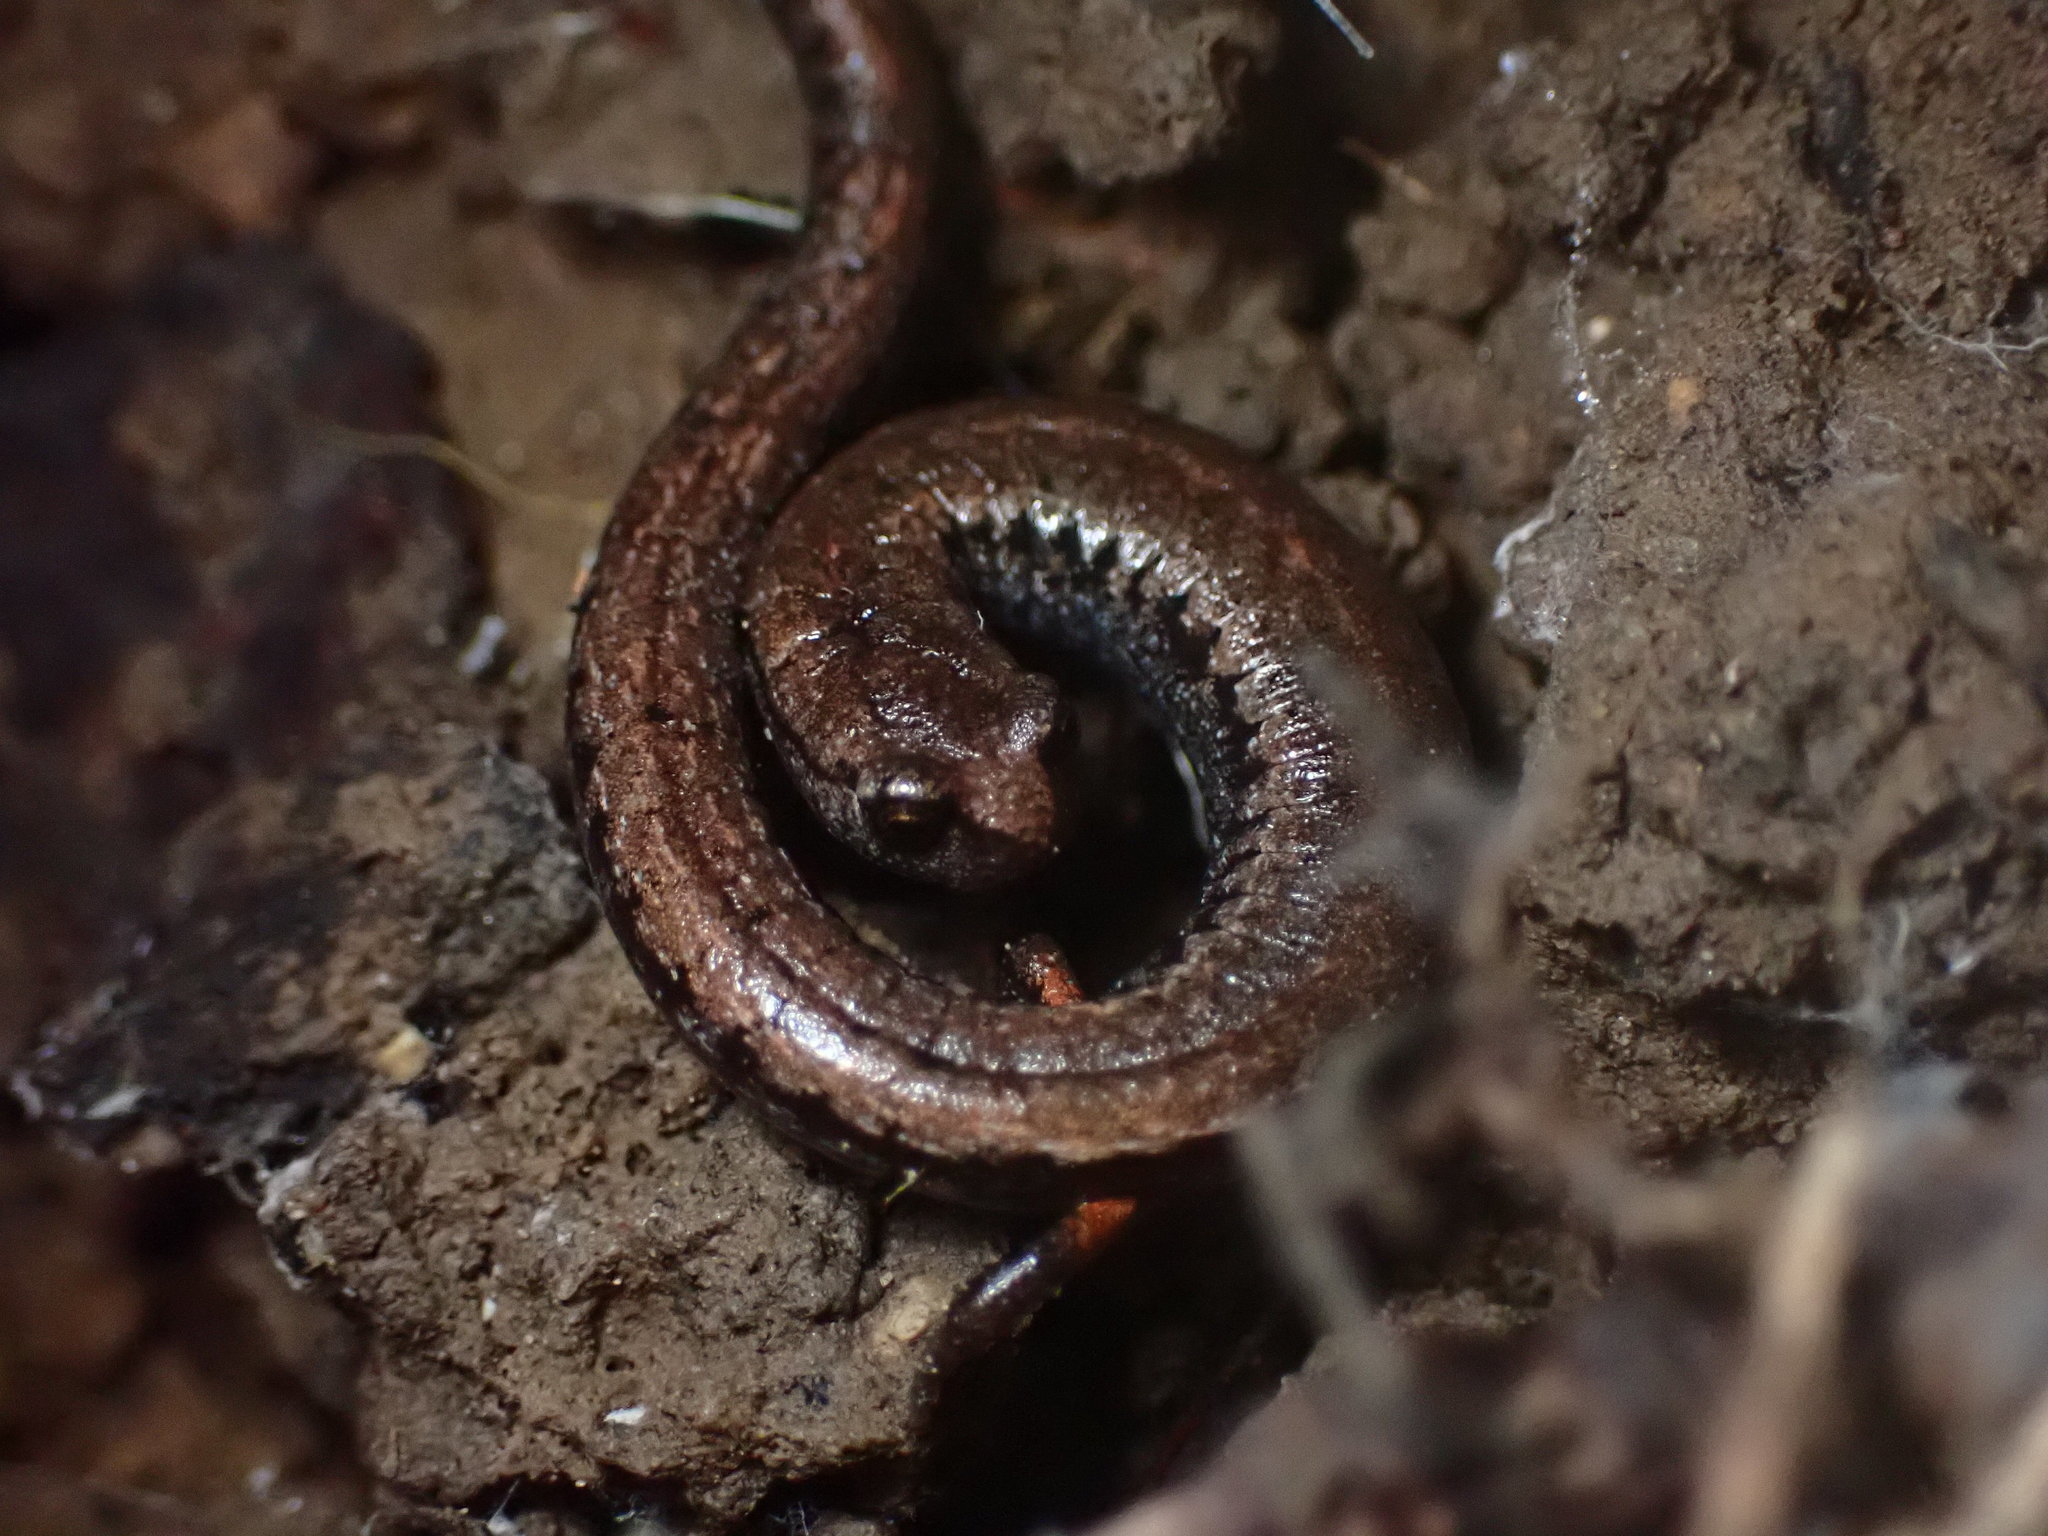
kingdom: Animalia
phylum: Chordata
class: Amphibia
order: Caudata
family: Plethodontidae
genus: Batrachoseps
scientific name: Batrachoseps attenuatus
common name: California slender salamander
